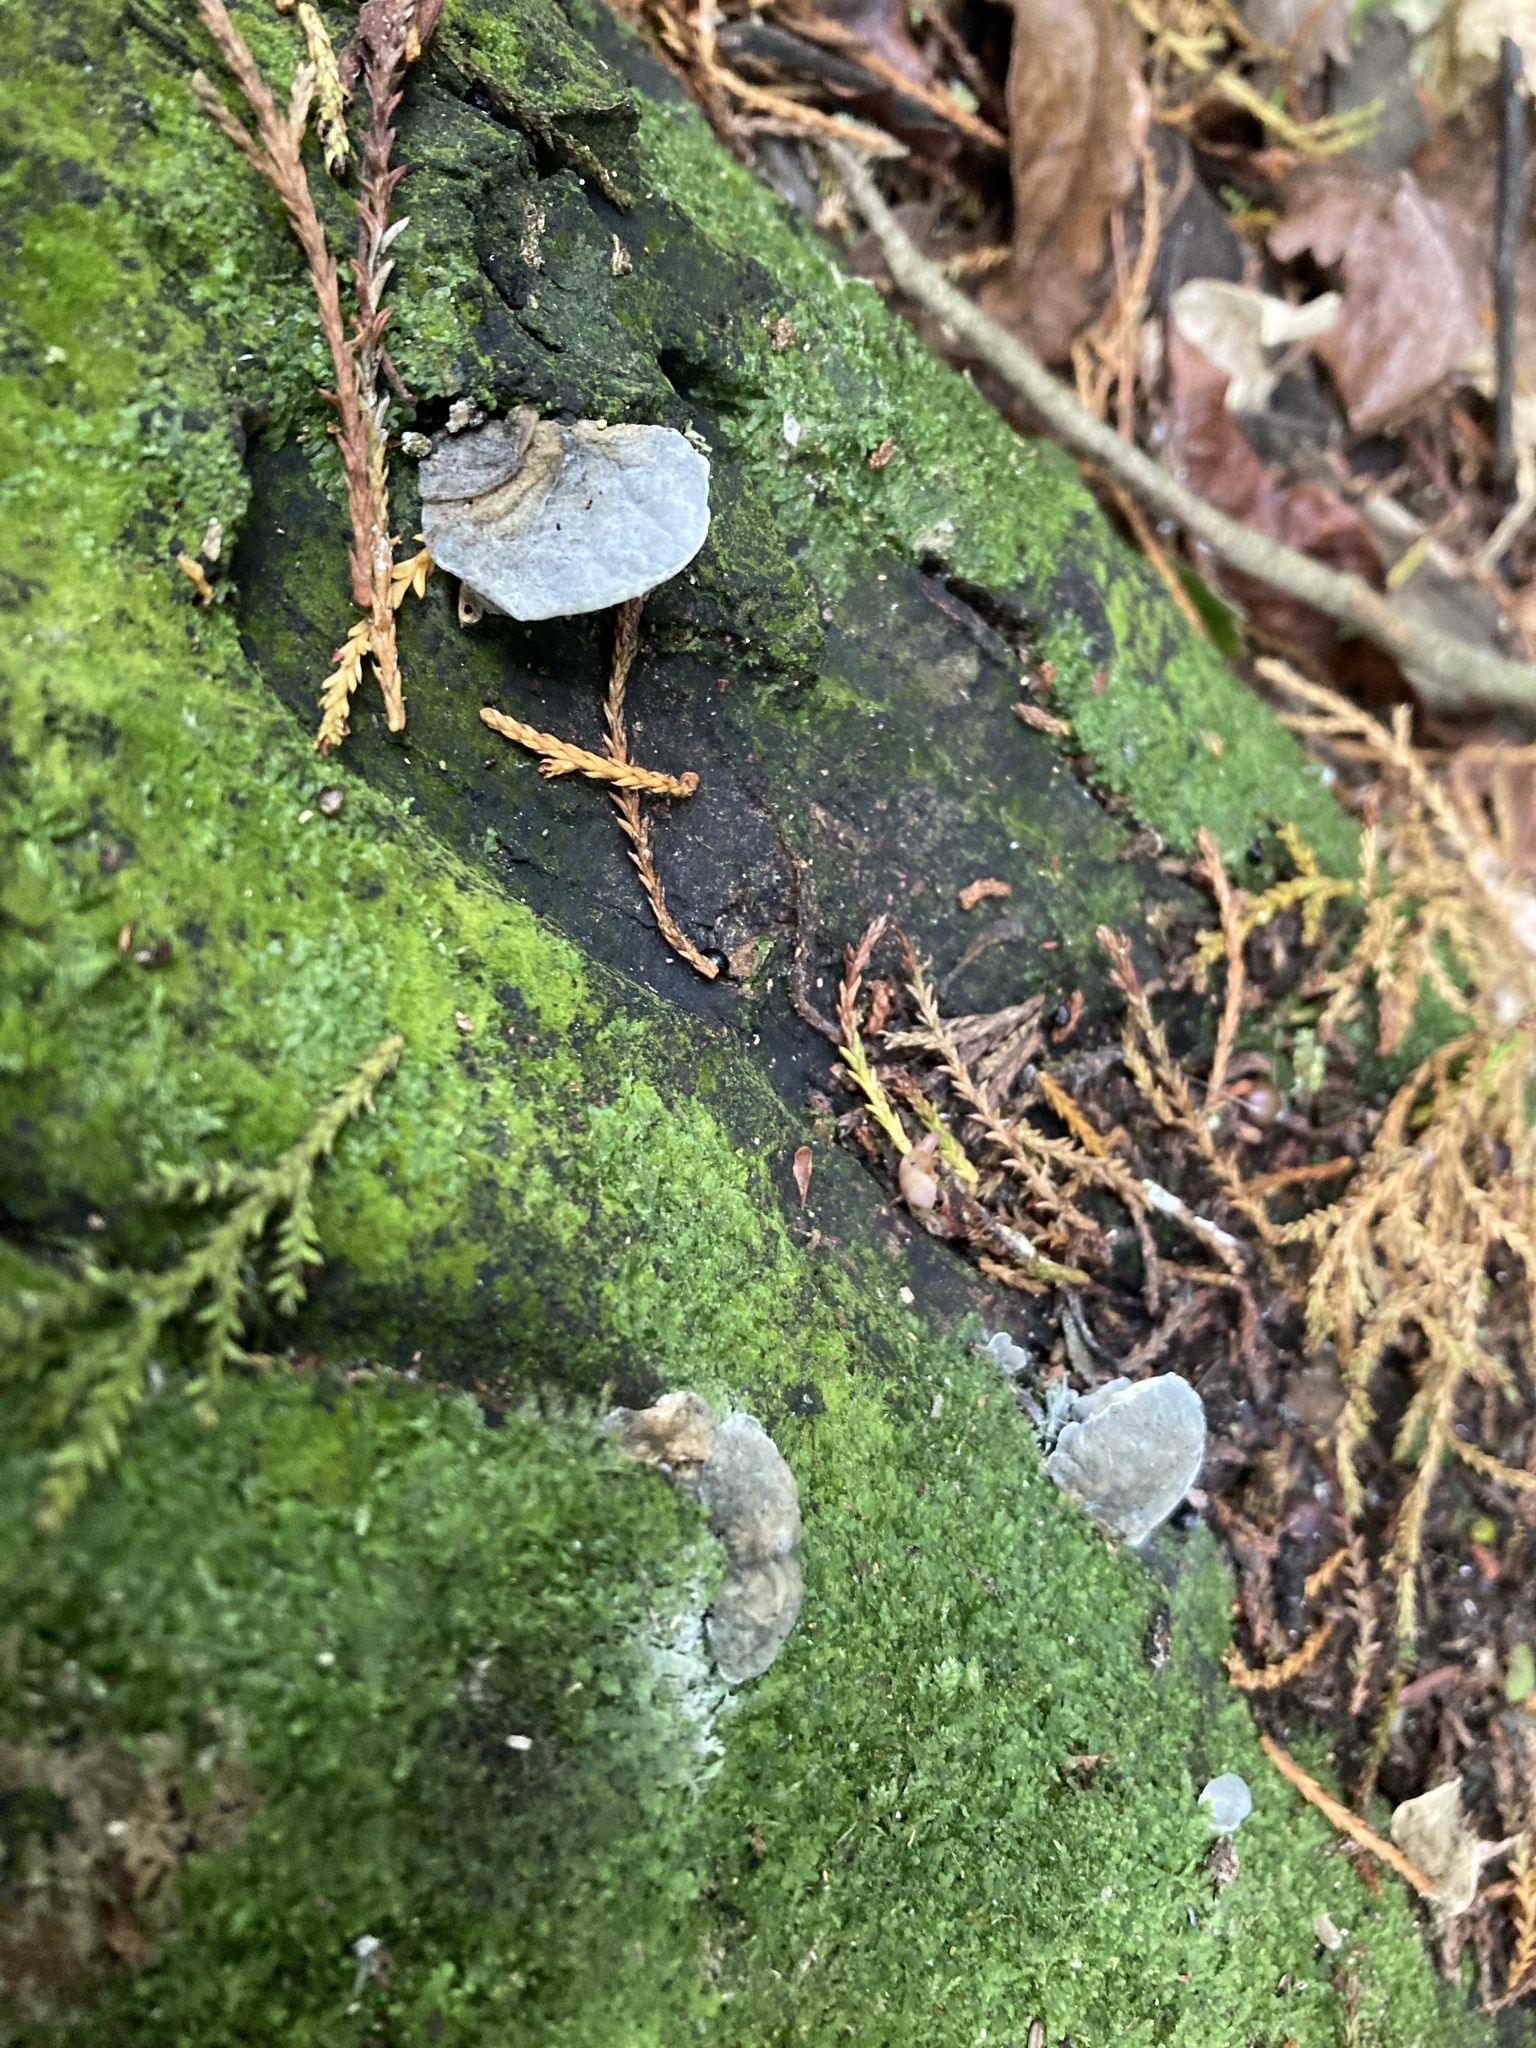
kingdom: Fungi
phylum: Basidiomycota
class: Agaricomycetes
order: Agaricales
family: Marasmiaceae
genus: Campanella
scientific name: Campanella tristis
